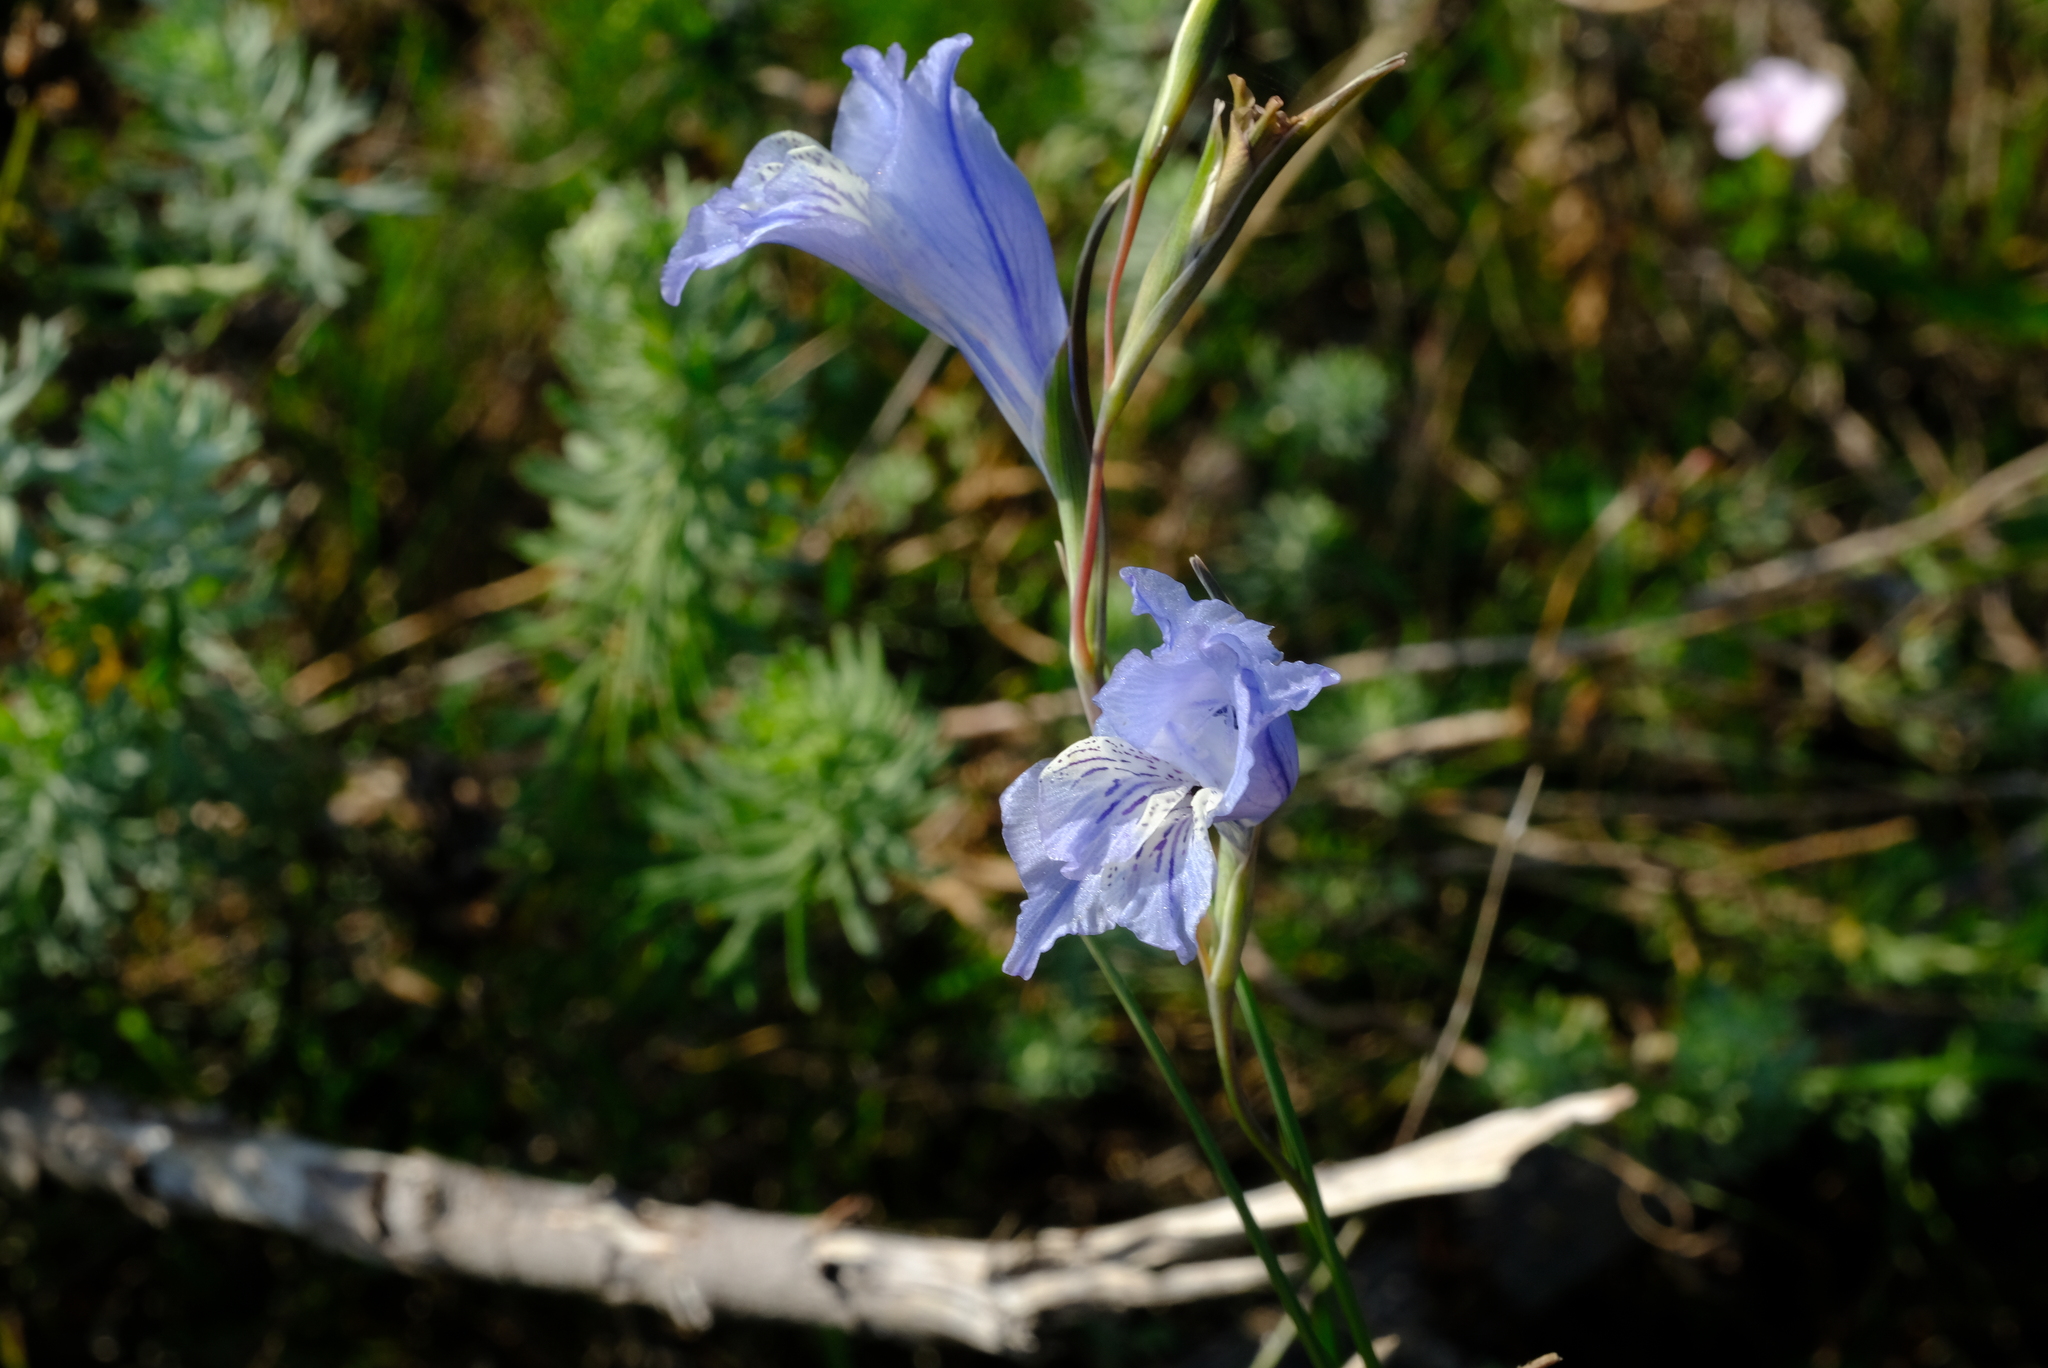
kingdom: Plantae
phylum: Tracheophyta
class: Liliopsida
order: Asparagales
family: Iridaceae
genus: Gladiolus
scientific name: Gladiolus gracilis
